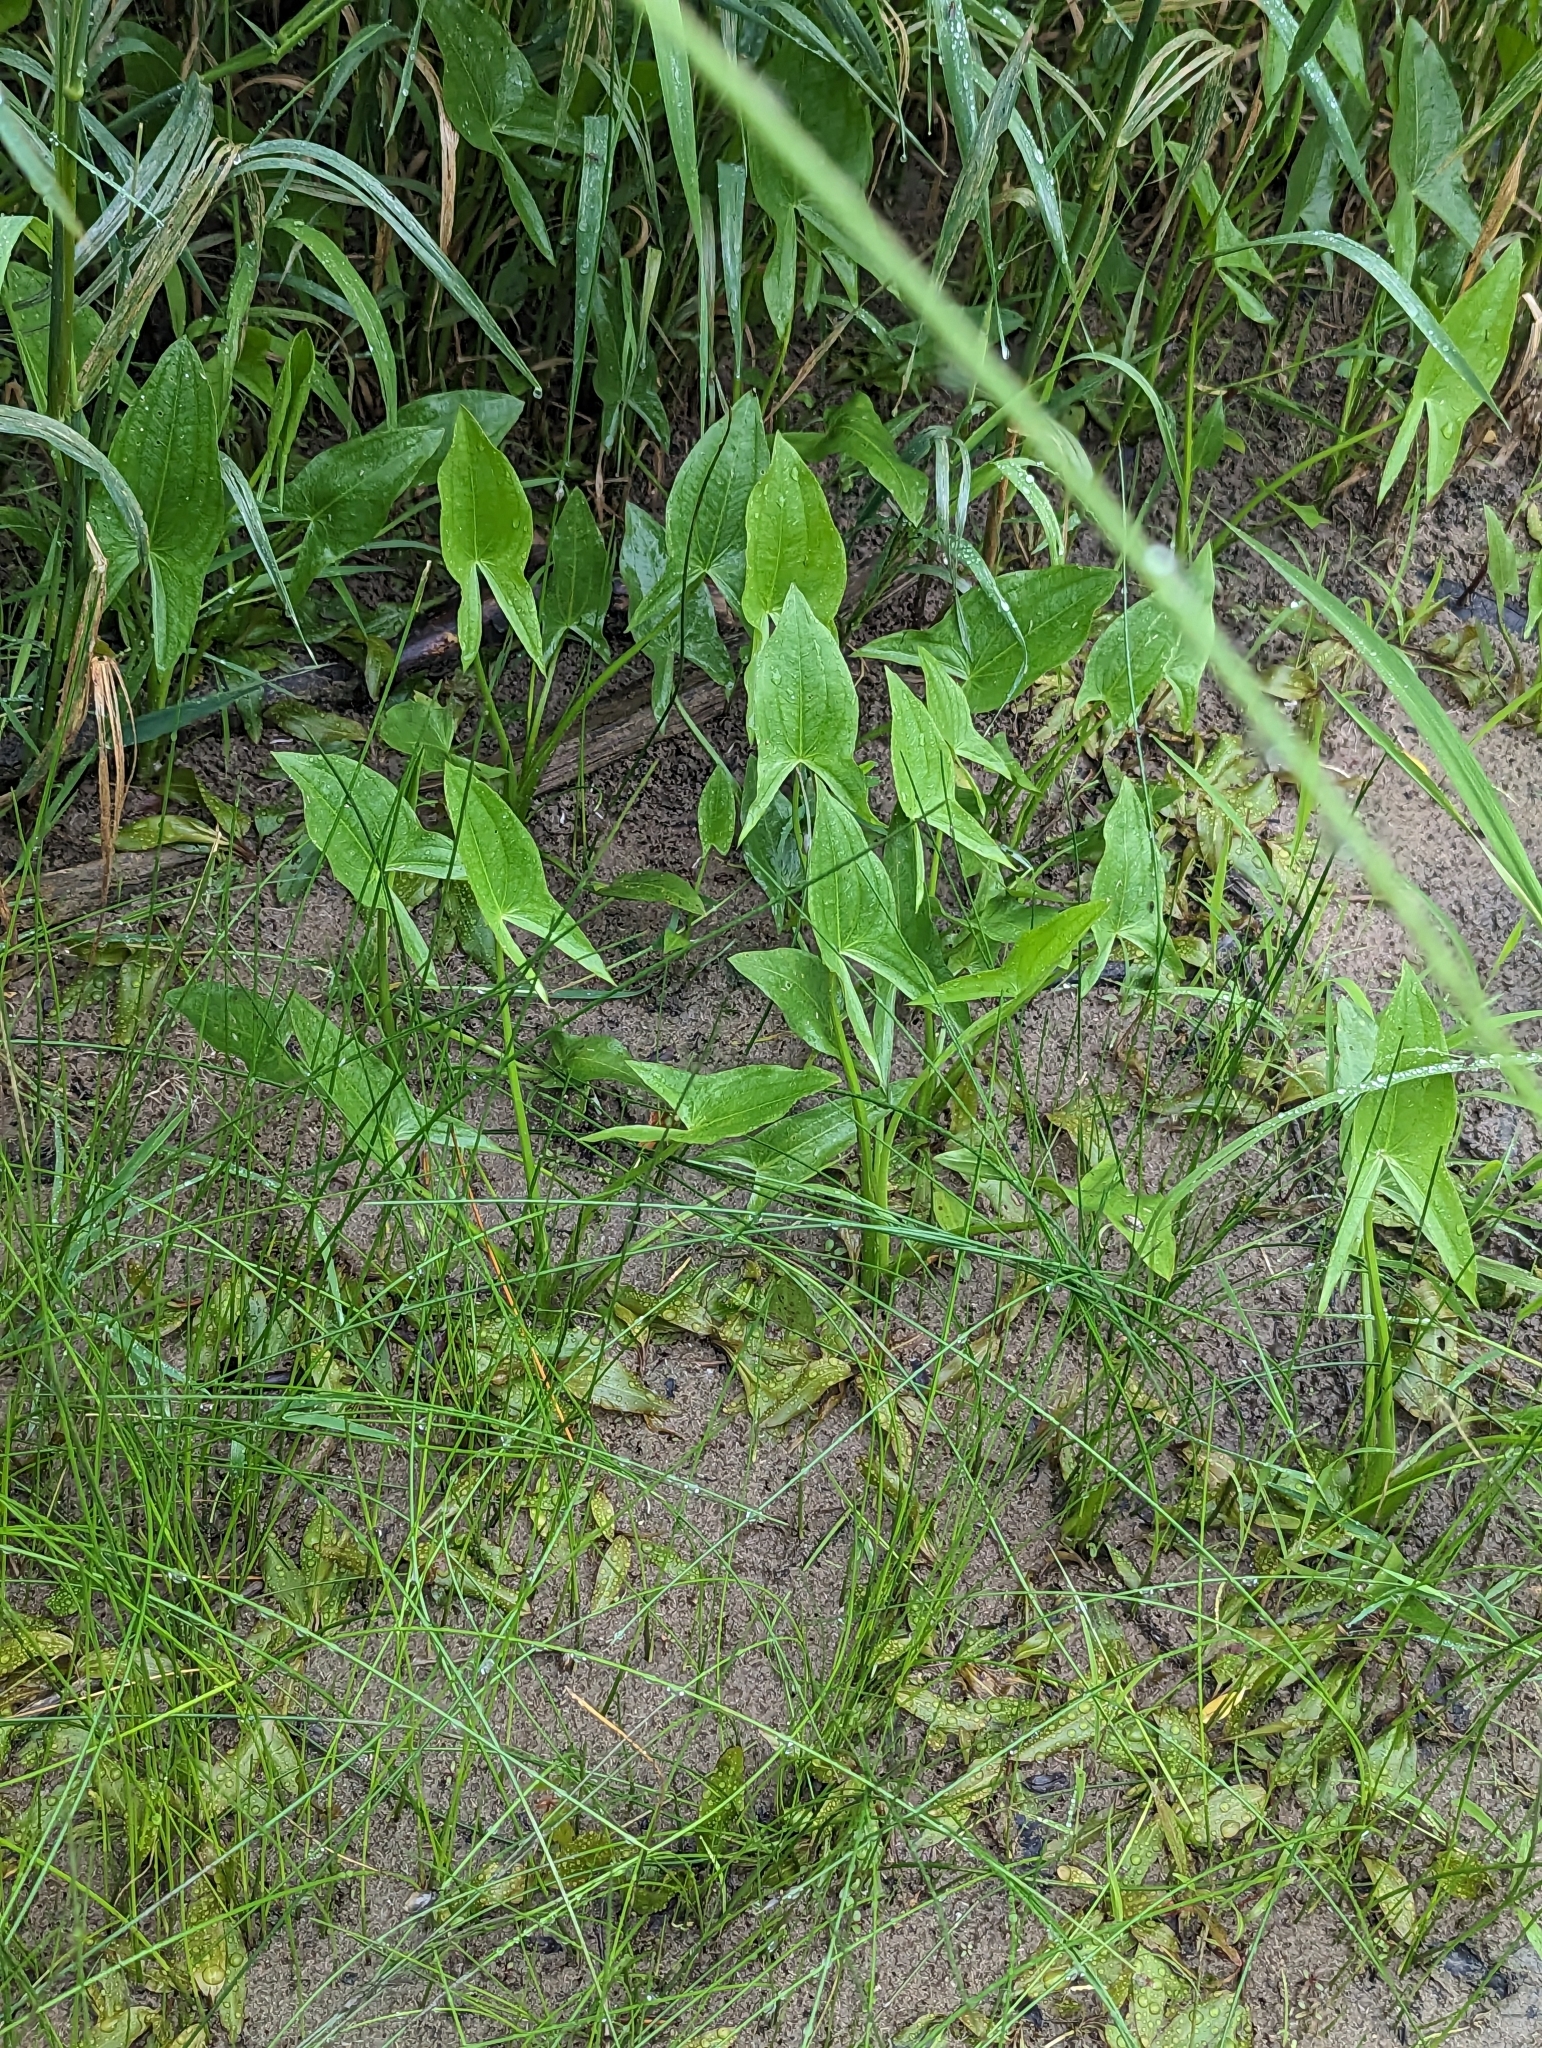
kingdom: Plantae
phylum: Tracheophyta
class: Liliopsida
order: Alismatales
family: Alismataceae
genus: Sagittaria
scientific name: Sagittaria latifolia
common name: Duck-potato
